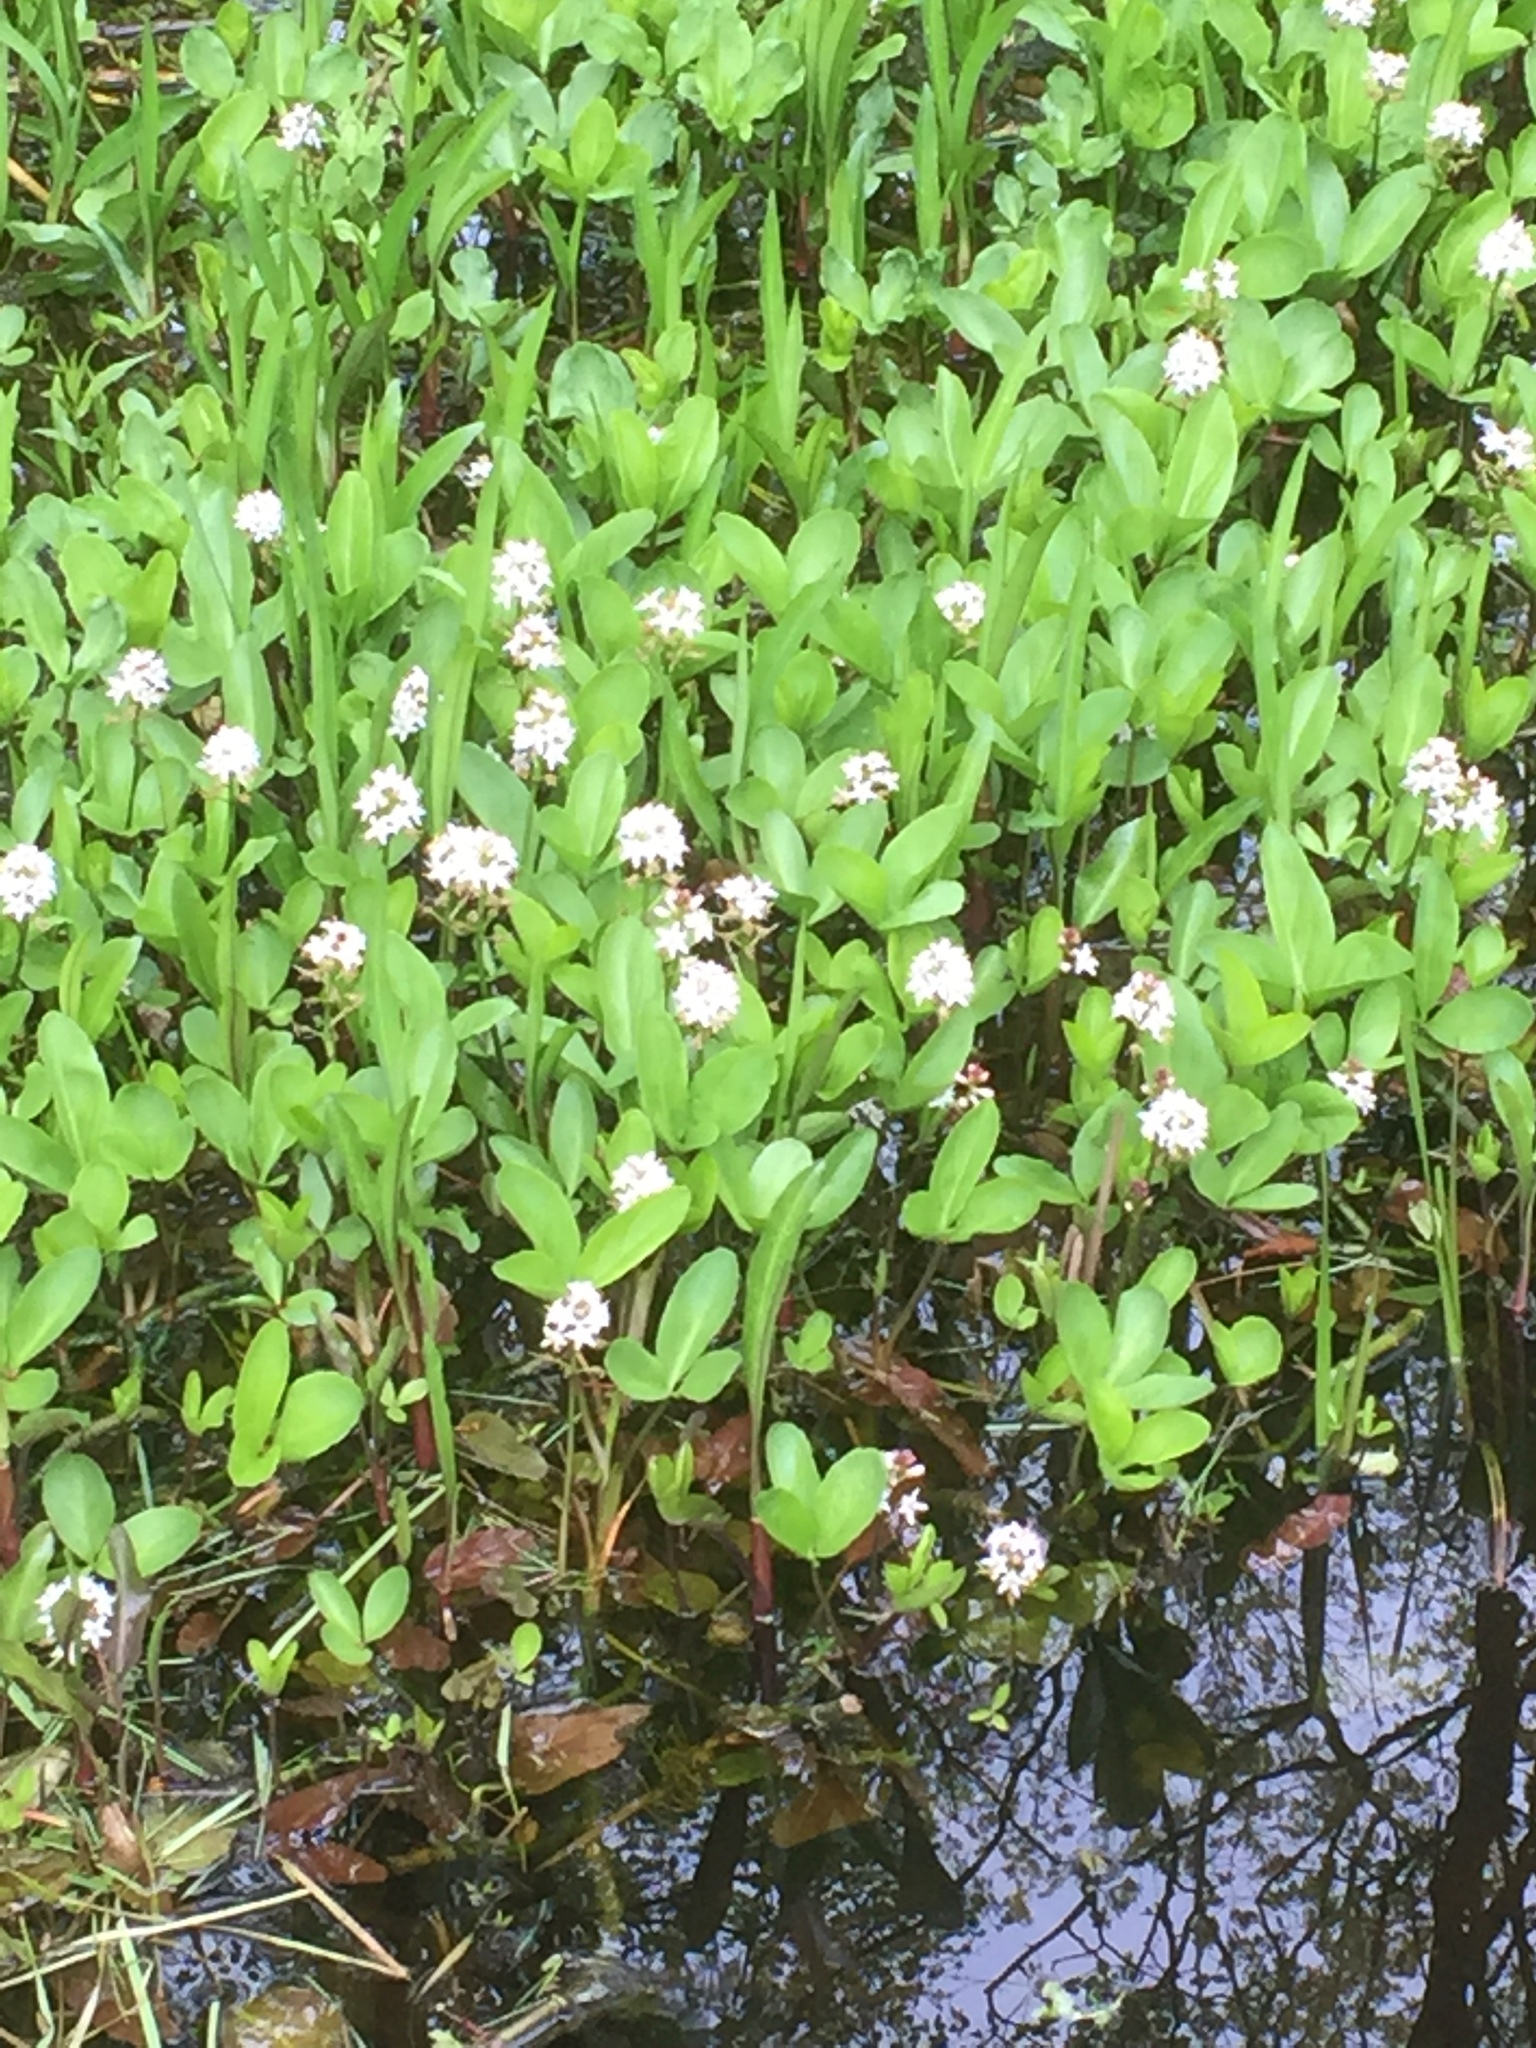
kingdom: Plantae
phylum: Tracheophyta
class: Magnoliopsida
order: Asterales
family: Menyanthaceae
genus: Menyanthes
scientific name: Menyanthes trifoliata
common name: Bogbean
